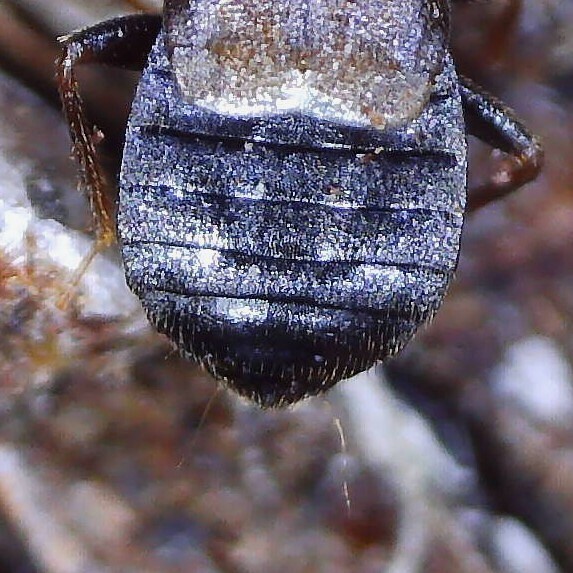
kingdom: Animalia
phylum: Arthropoda
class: Insecta
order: Hemiptera
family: Anthocoridae
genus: Xylocoris
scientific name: Xylocoris cursitans
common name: Minute pirate bug
